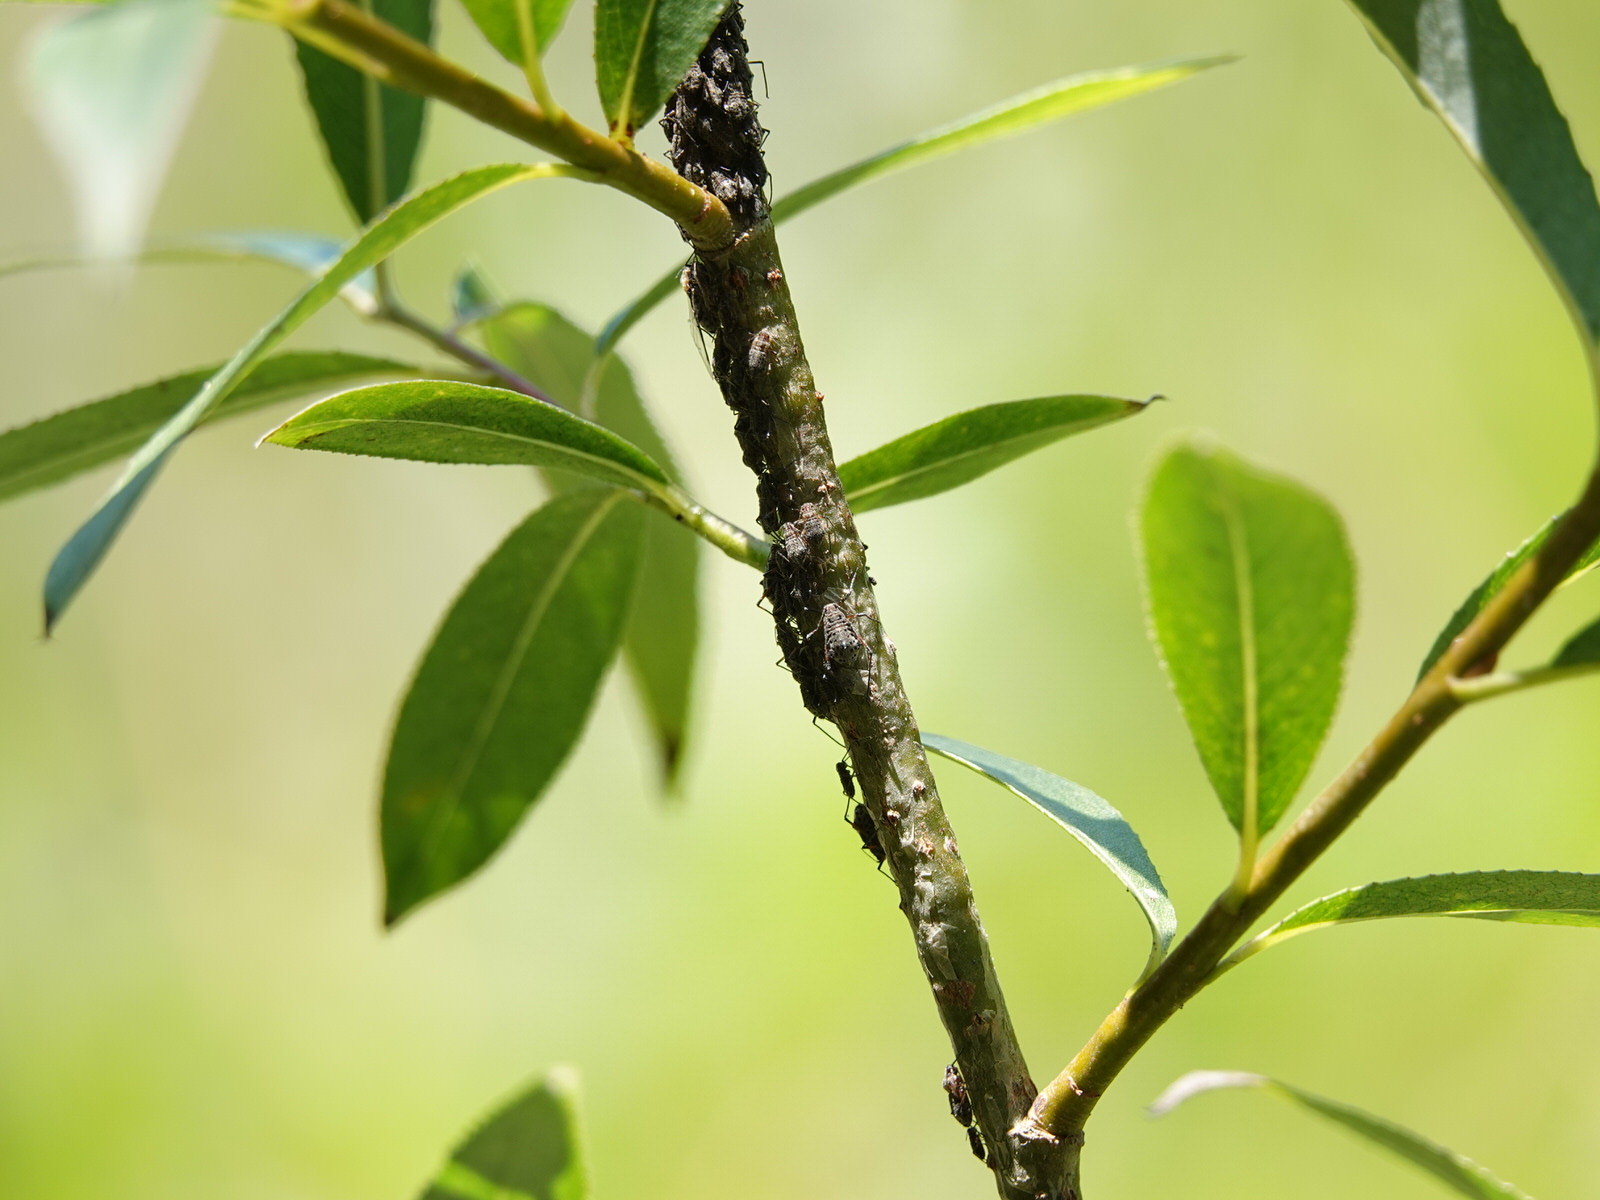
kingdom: Animalia
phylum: Arthropoda
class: Insecta
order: Hemiptera
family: Aphididae
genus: Tuberolachnus
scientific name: Tuberolachnus salignus
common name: Giant willow aphid
